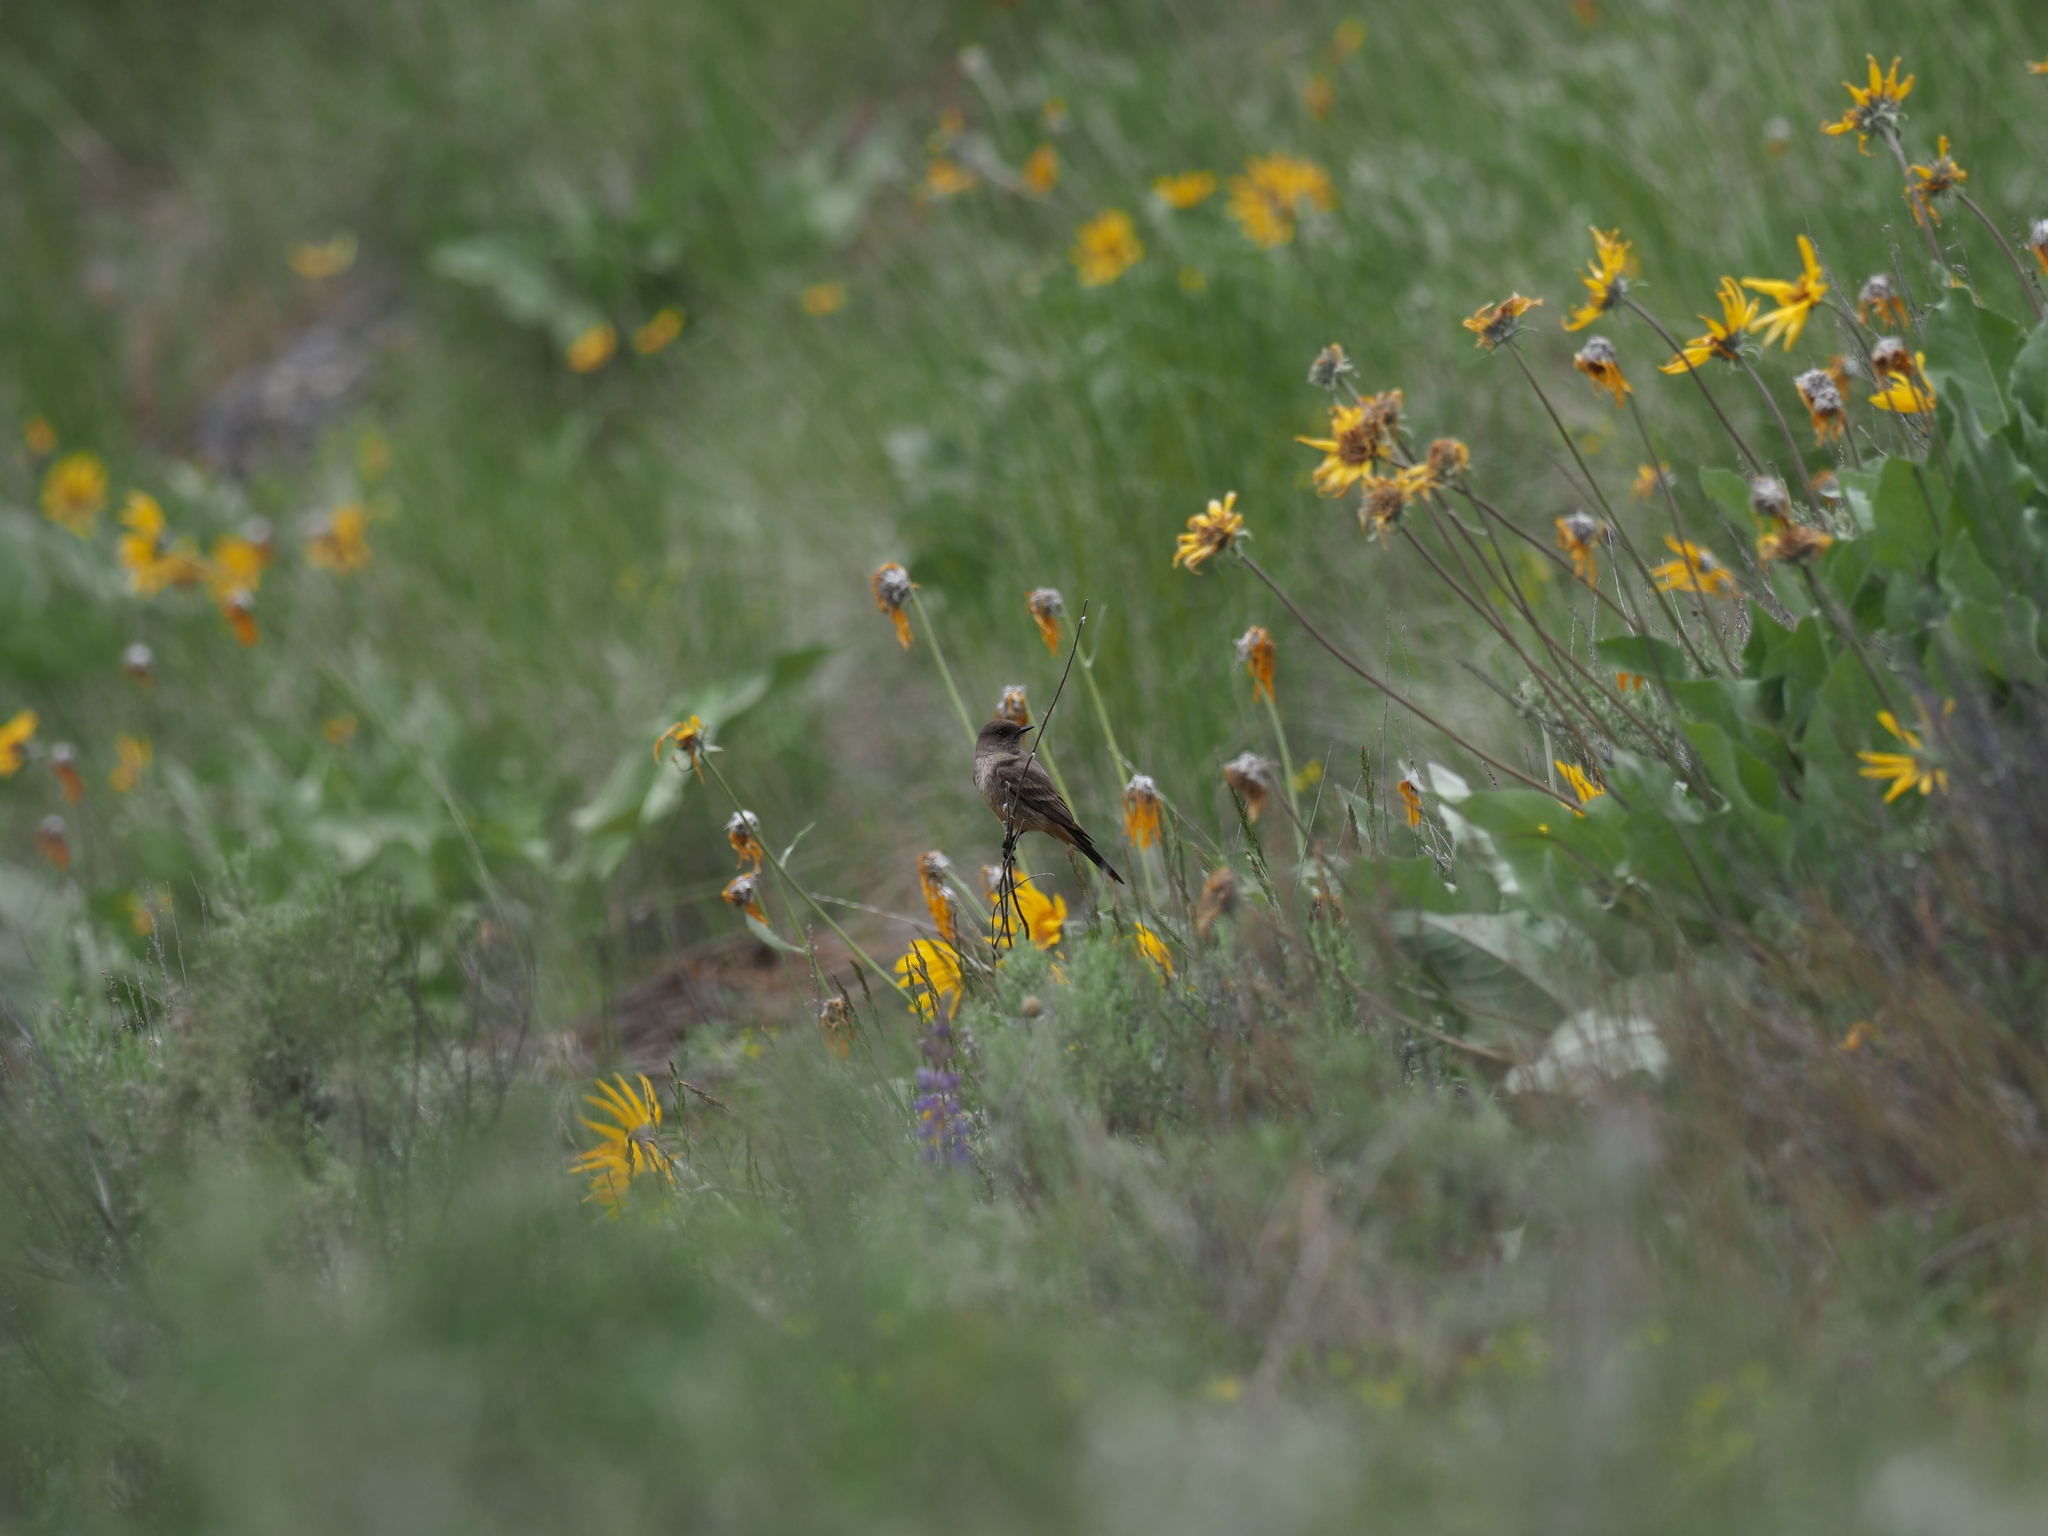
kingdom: Animalia
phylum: Chordata
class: Aves
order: Passeriformes
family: Tyrannidae
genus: Sayornis
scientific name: Sayornis saya
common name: Say's phoebe
